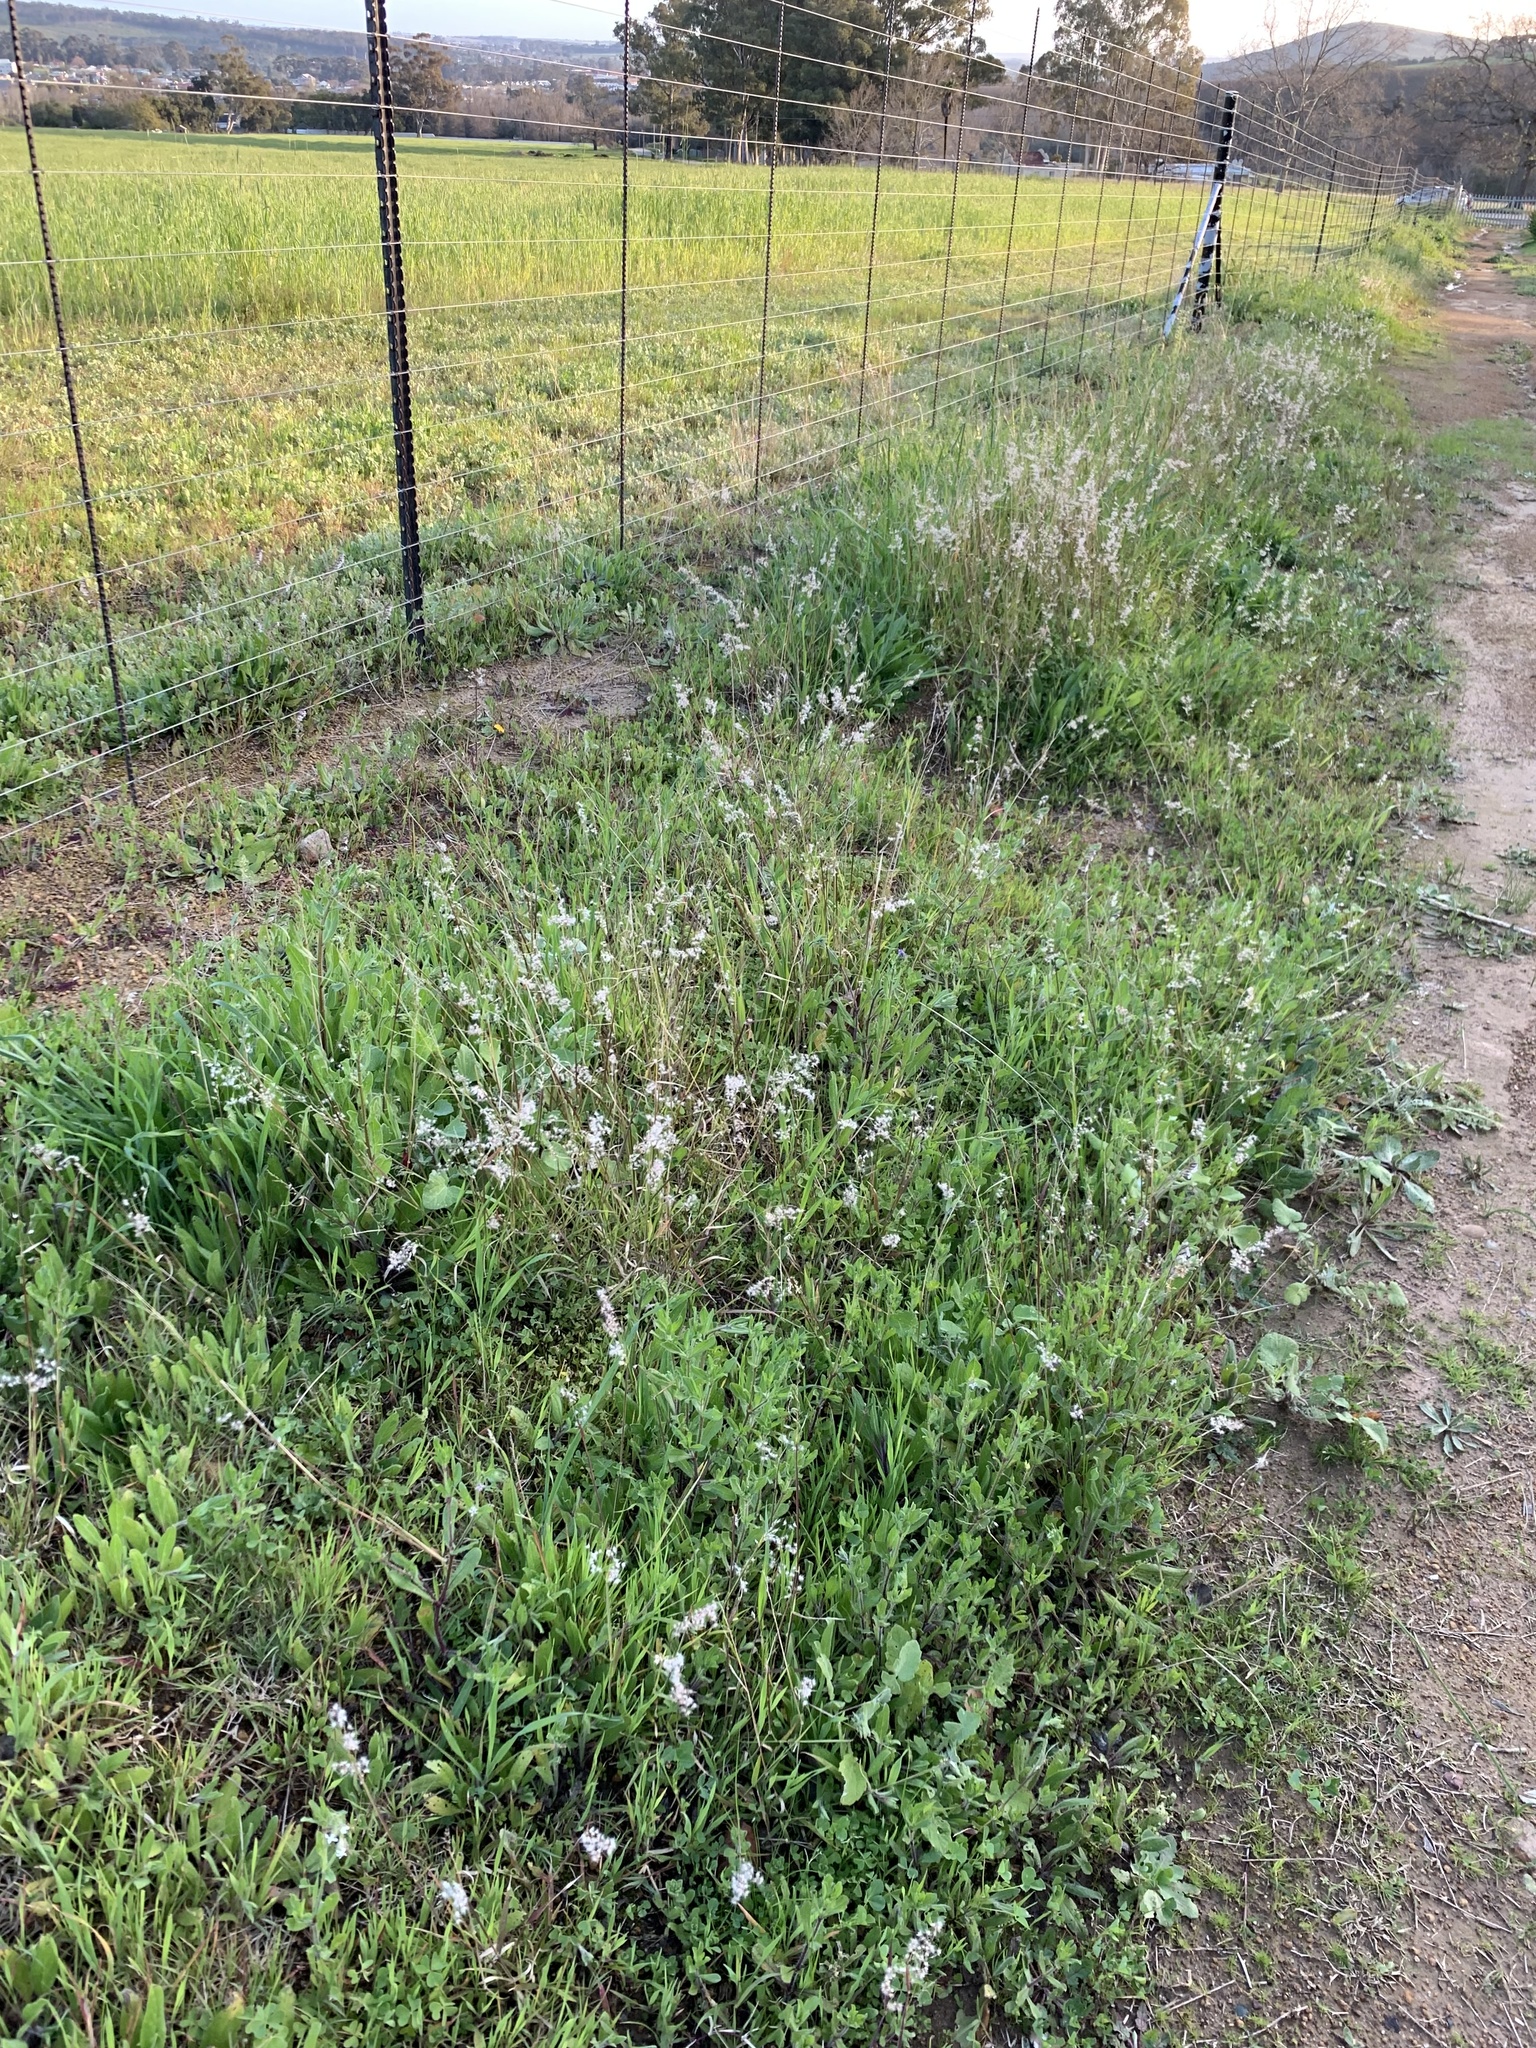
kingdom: Plantae
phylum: Tracheophyta
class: Liliopsida
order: Poales
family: Poaceae
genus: Melinis
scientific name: Melinis repens
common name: Rose natal grass
